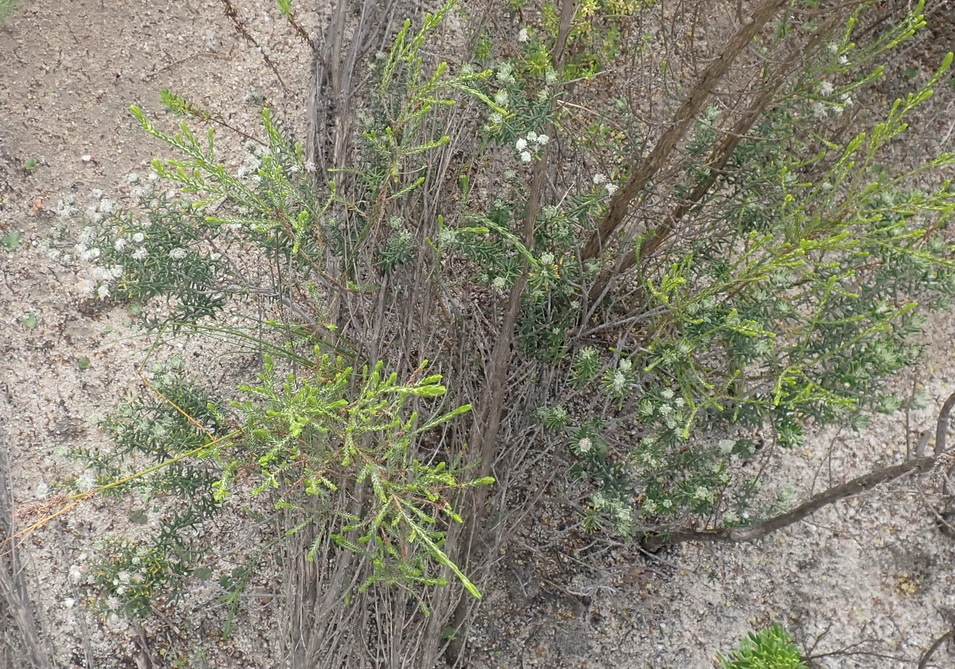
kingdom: Plantae
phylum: Tracheophyta
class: Magnoliopsida
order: Rosales
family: Rhamnaceae
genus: Trichocephalus
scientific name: Trichocephalus stipularis
